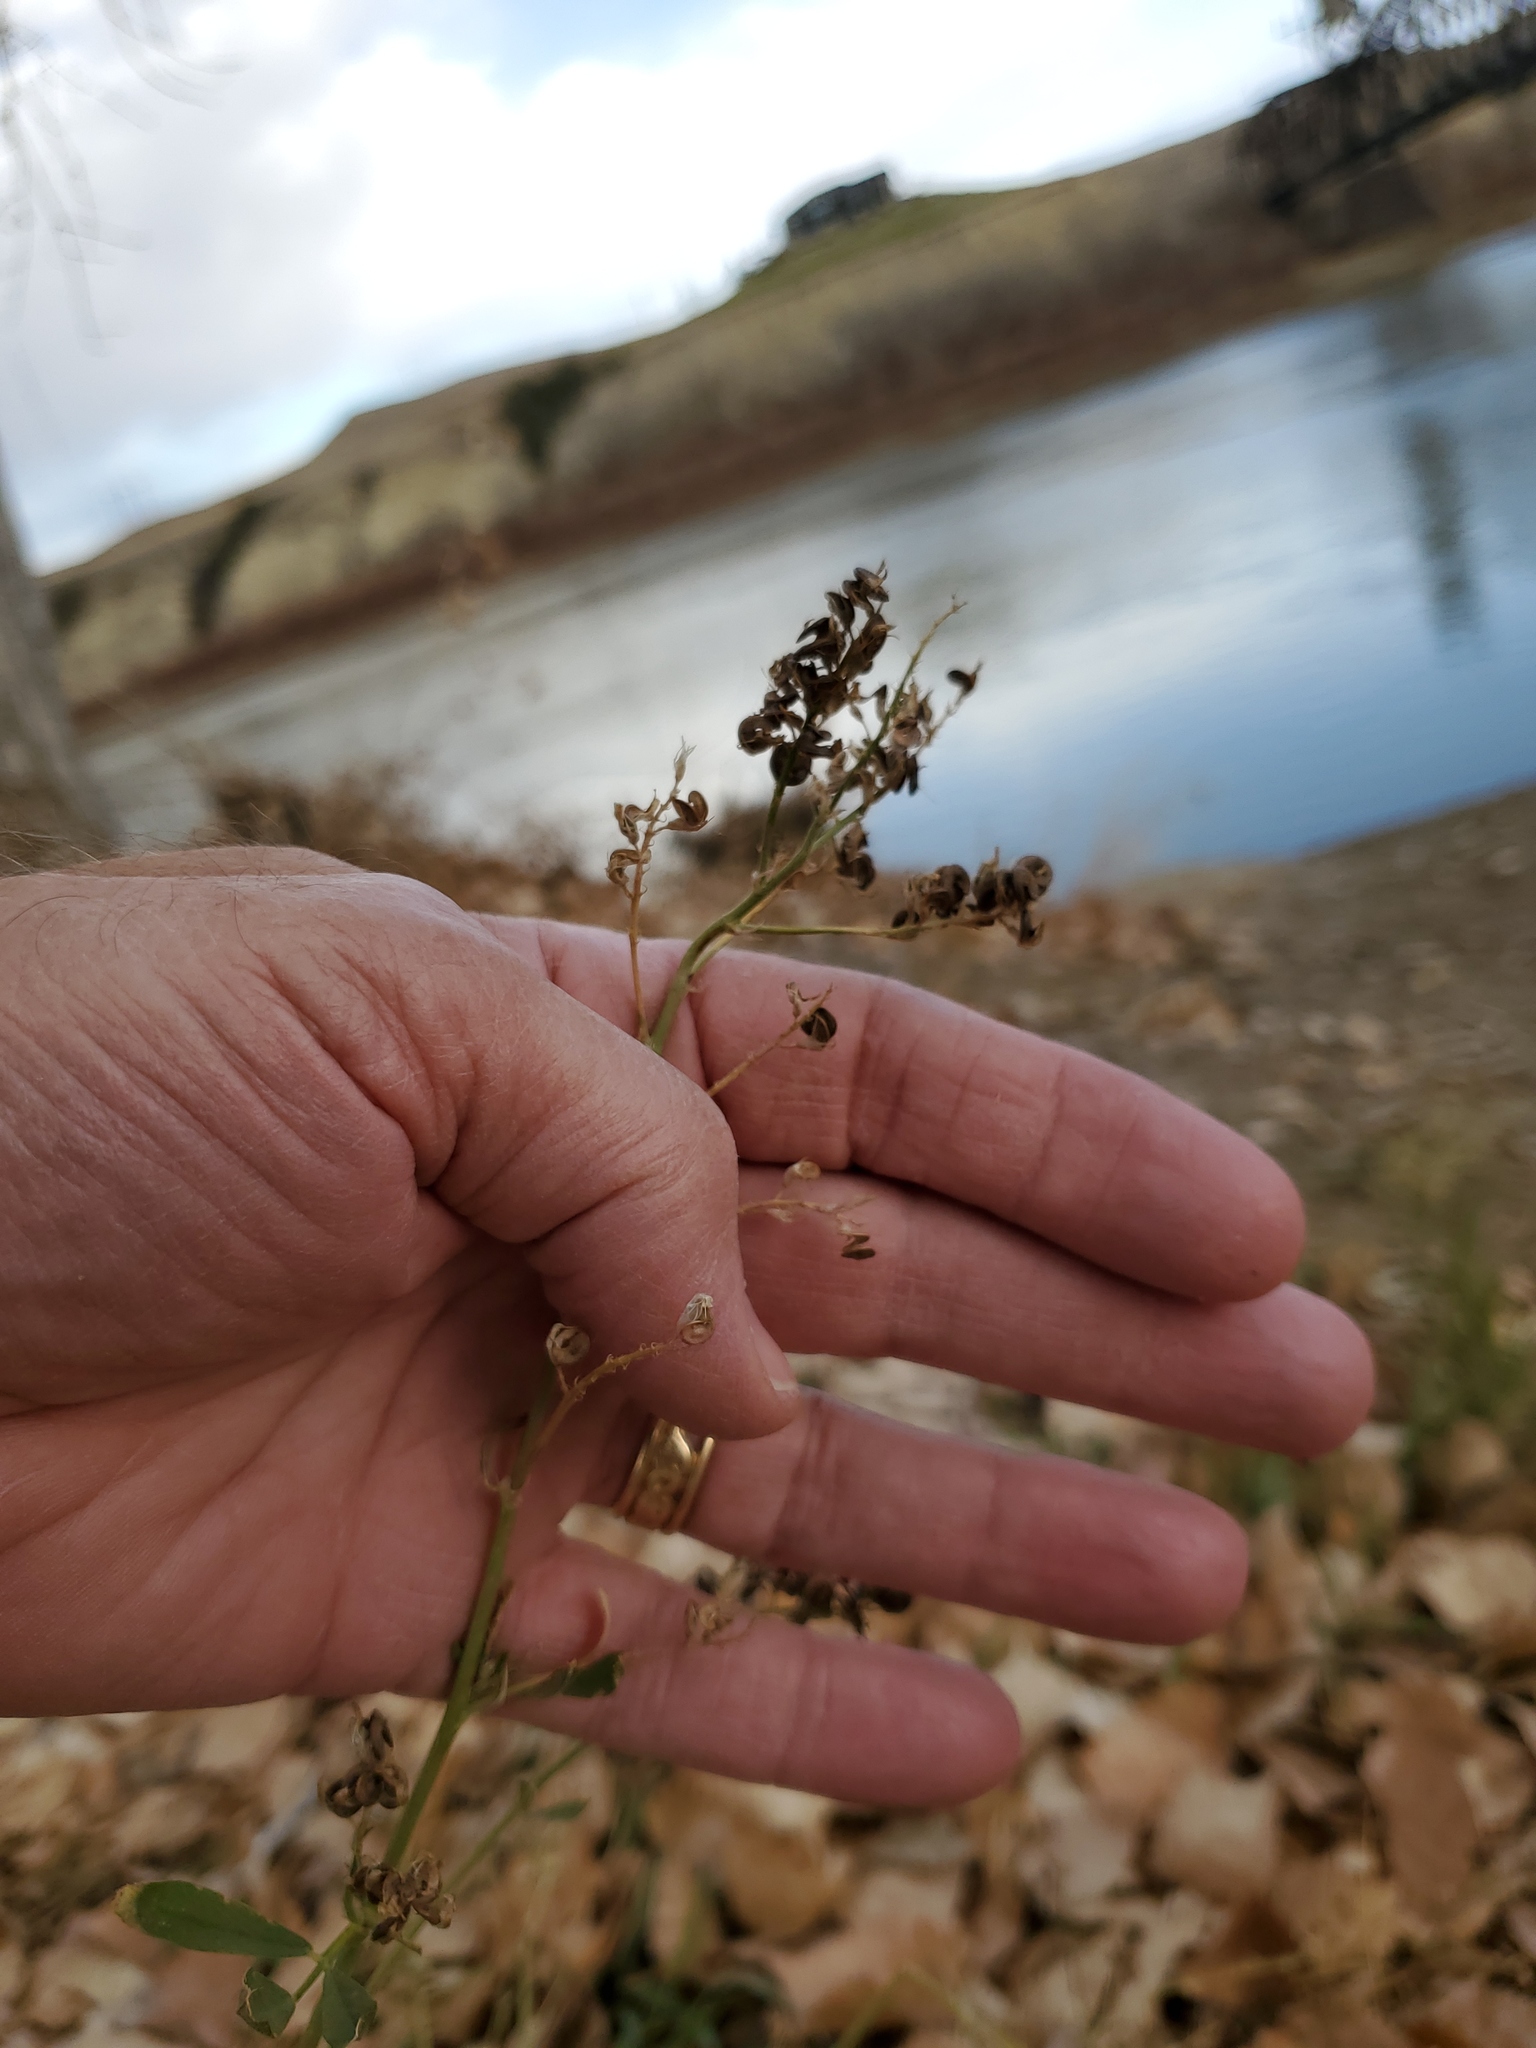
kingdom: Plantae
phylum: Tracheophyta
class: Magnoliopsida
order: Fabales
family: Fabaceae
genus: Medicago
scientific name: Medicago sativa
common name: Alfalfa
